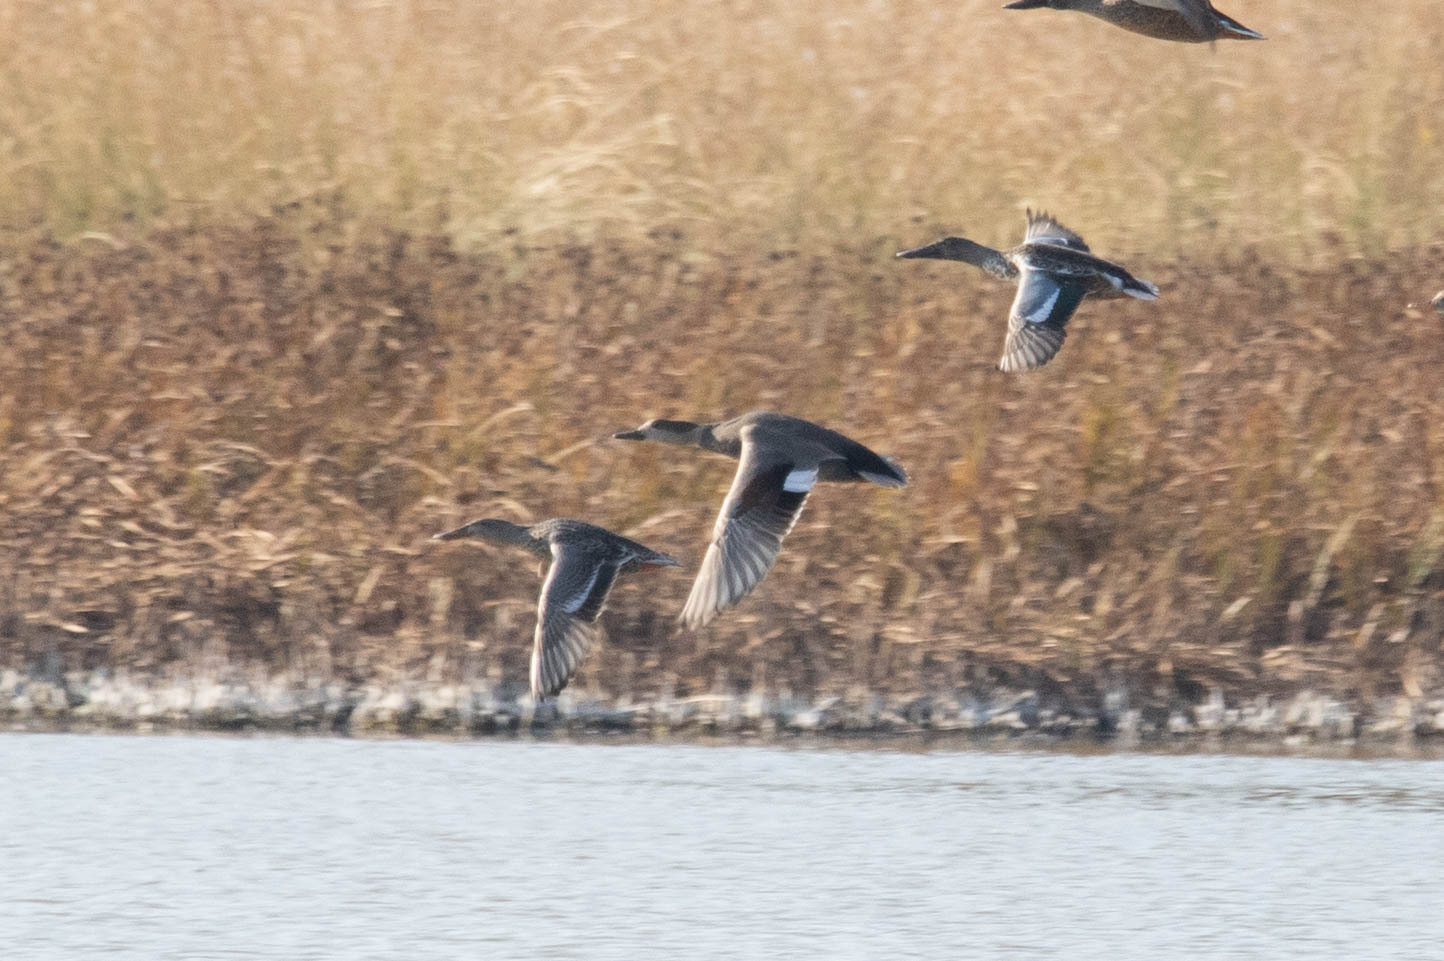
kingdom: Animalia
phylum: Chordata
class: Aves
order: Anseriformes
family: Anatidae
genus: Mareca
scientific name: Mareca strepera
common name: Gadwall
